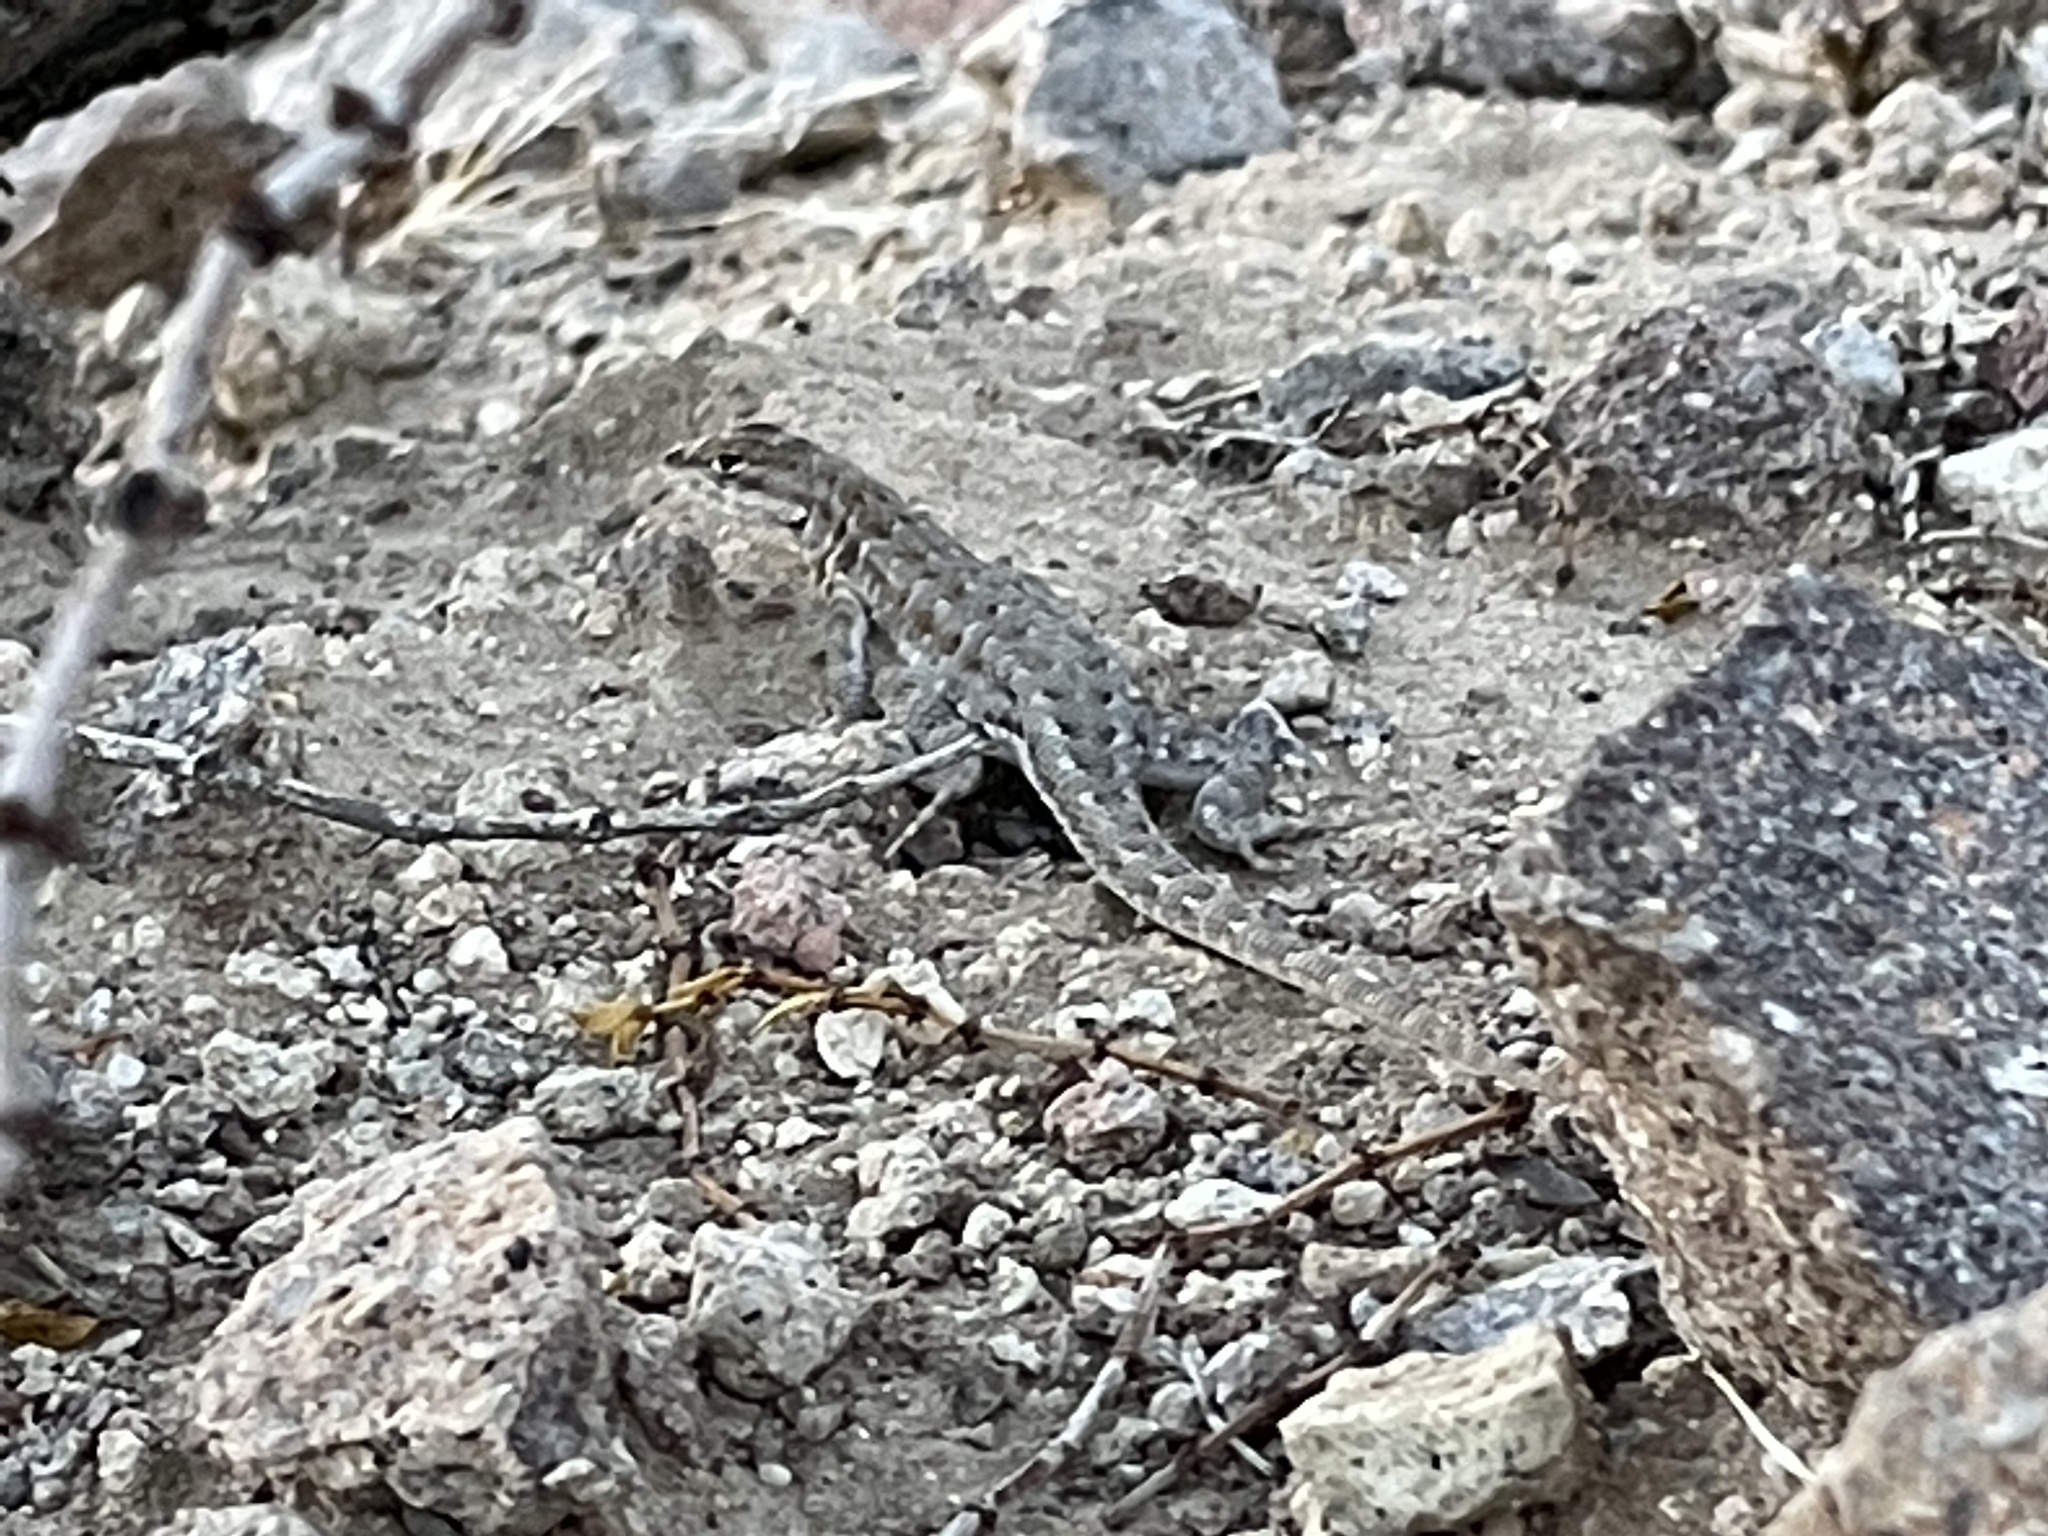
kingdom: Animalia
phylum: Chordata
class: Squamata
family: Phrynosomatidae
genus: Uta
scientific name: Uta stansburiana
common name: Side-blotched lizard
